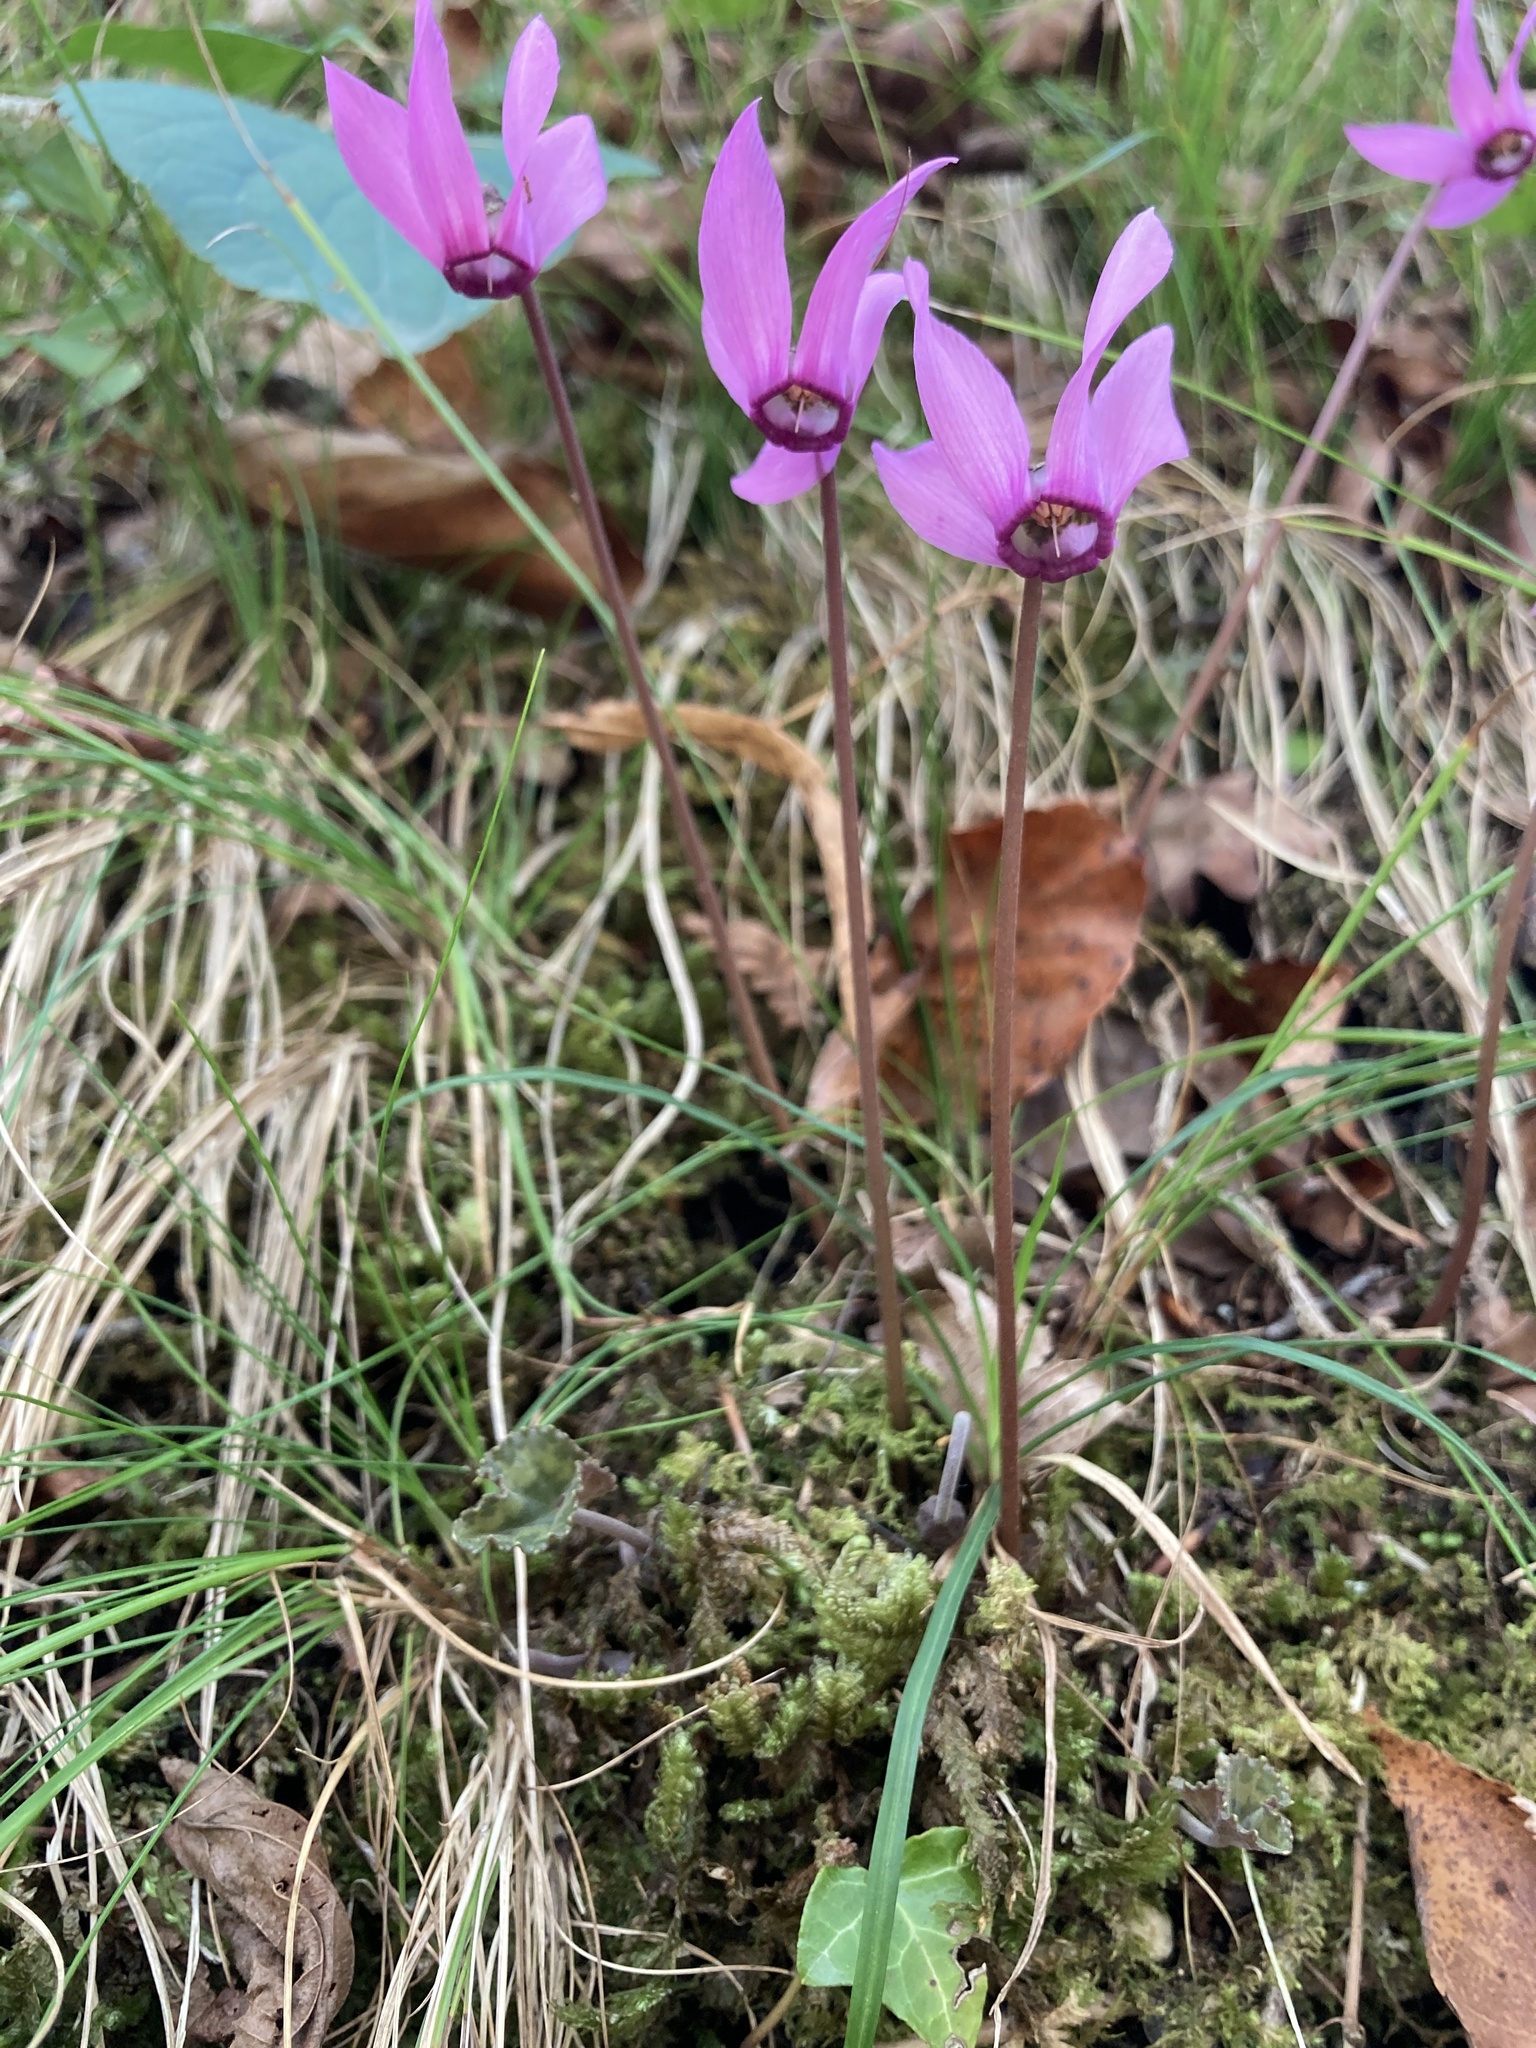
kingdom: Plantae
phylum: Tracheophyta
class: Magnoliopsida
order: Ericales
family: Primulaceae
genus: Cyclamen
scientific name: Cyclamen purpurascens
